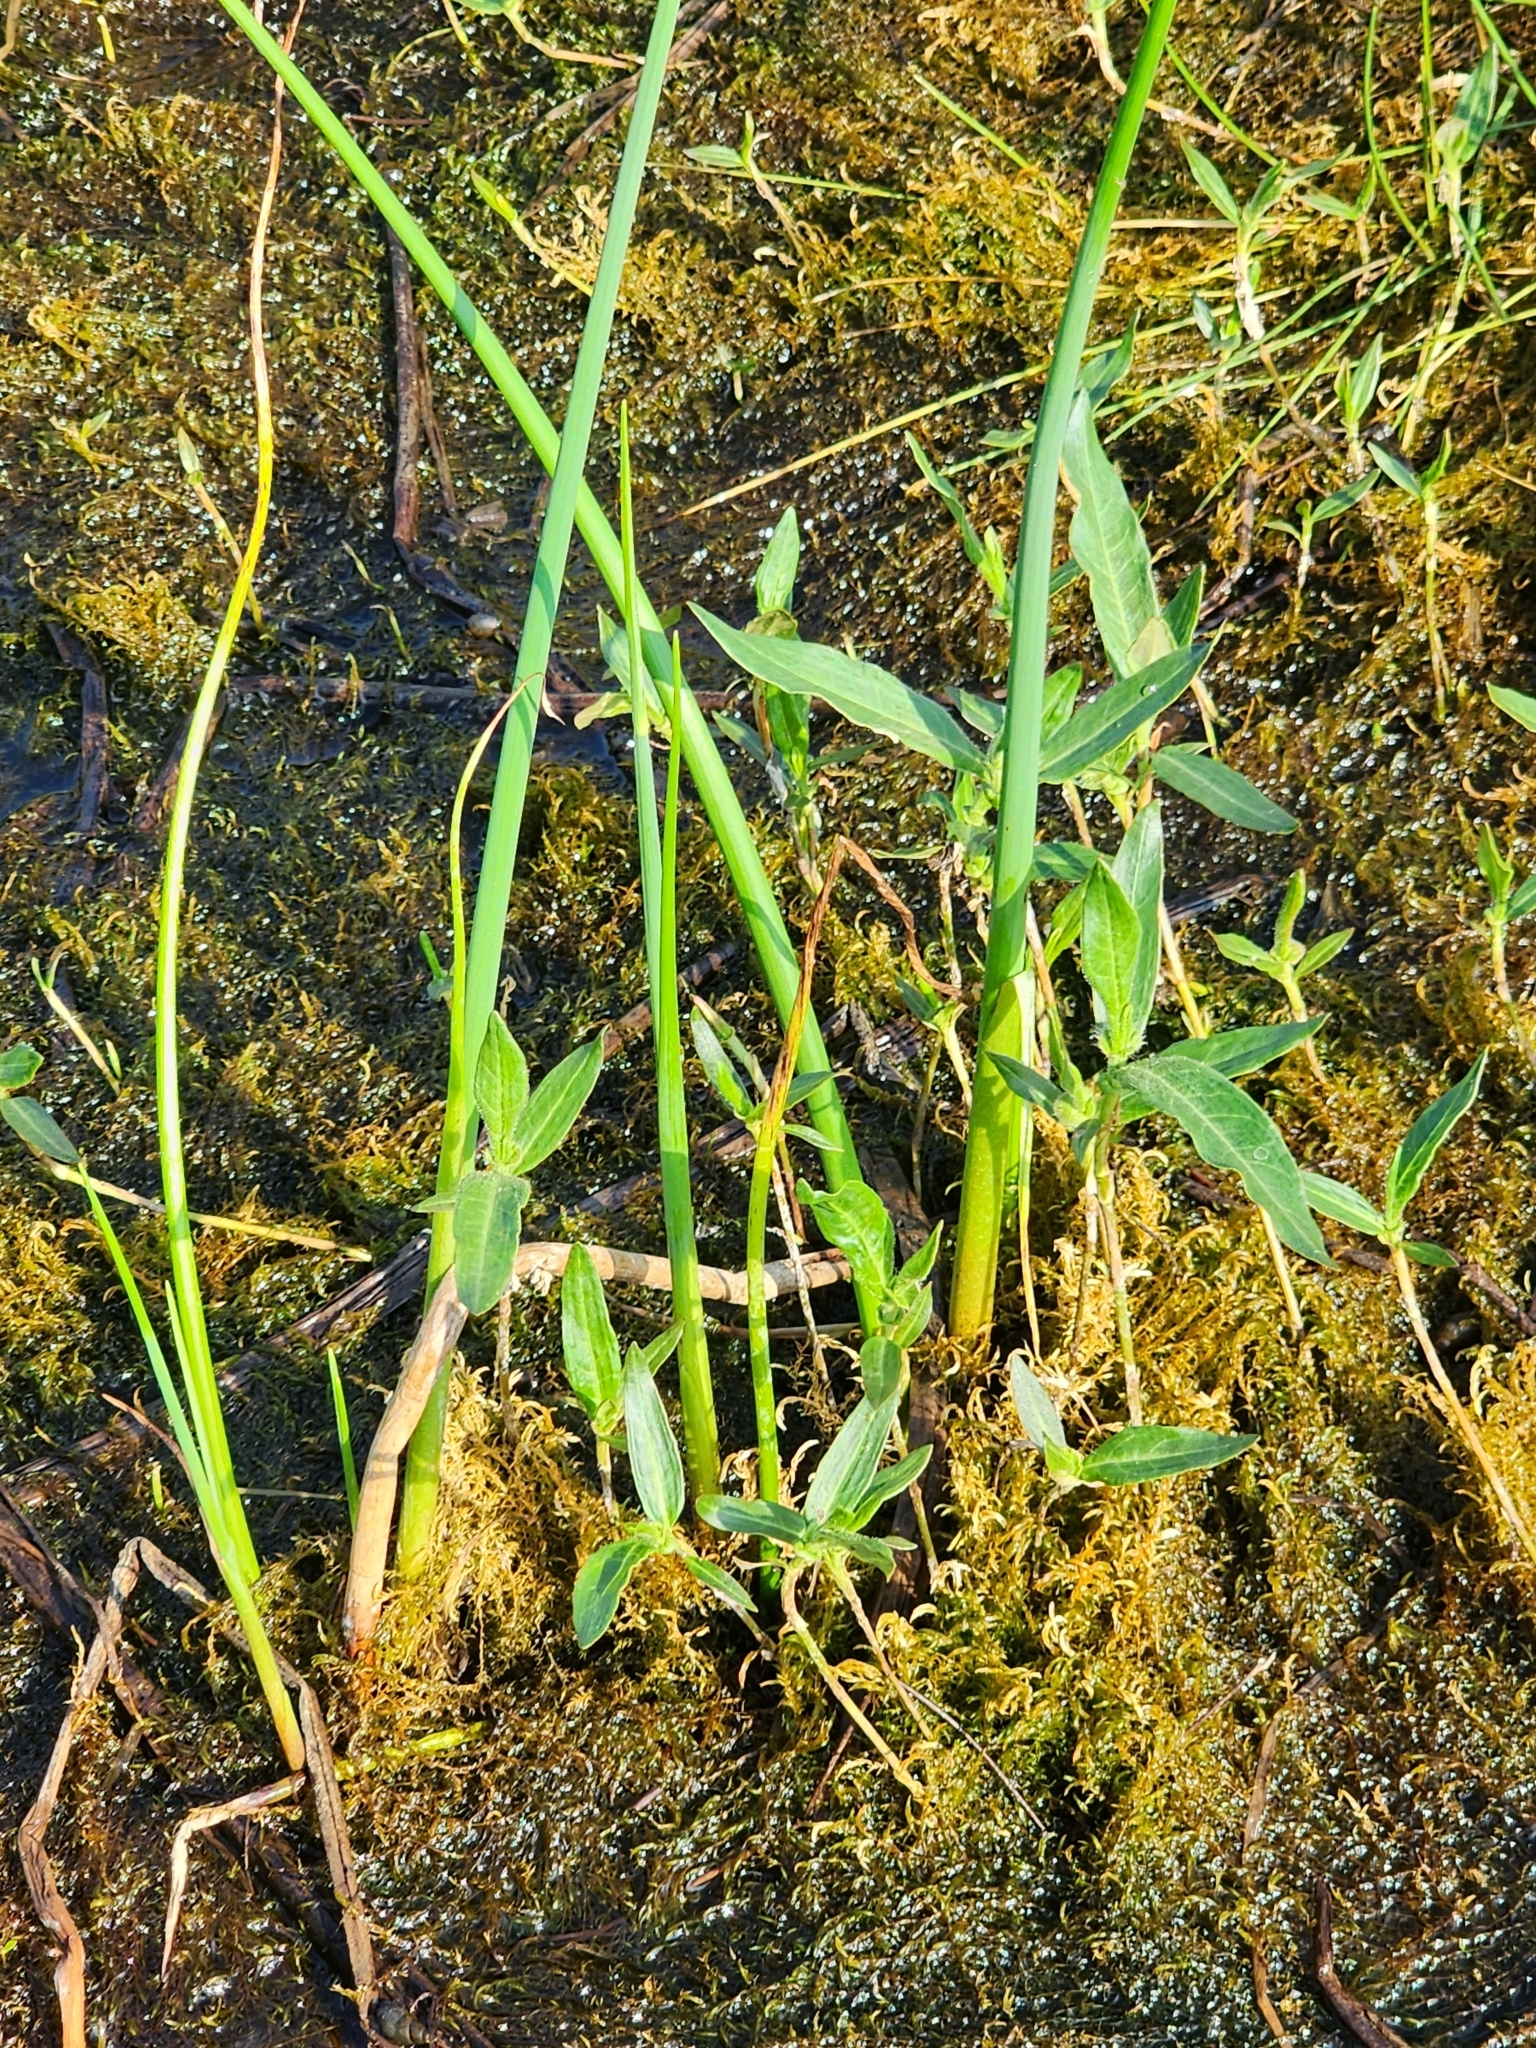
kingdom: Plantae
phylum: Tracheophyta
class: Magnoliopsida
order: Caryophyllales
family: Polygonaceae
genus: Persicaria
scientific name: Persicaria amphibia
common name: Amphibious bistort
